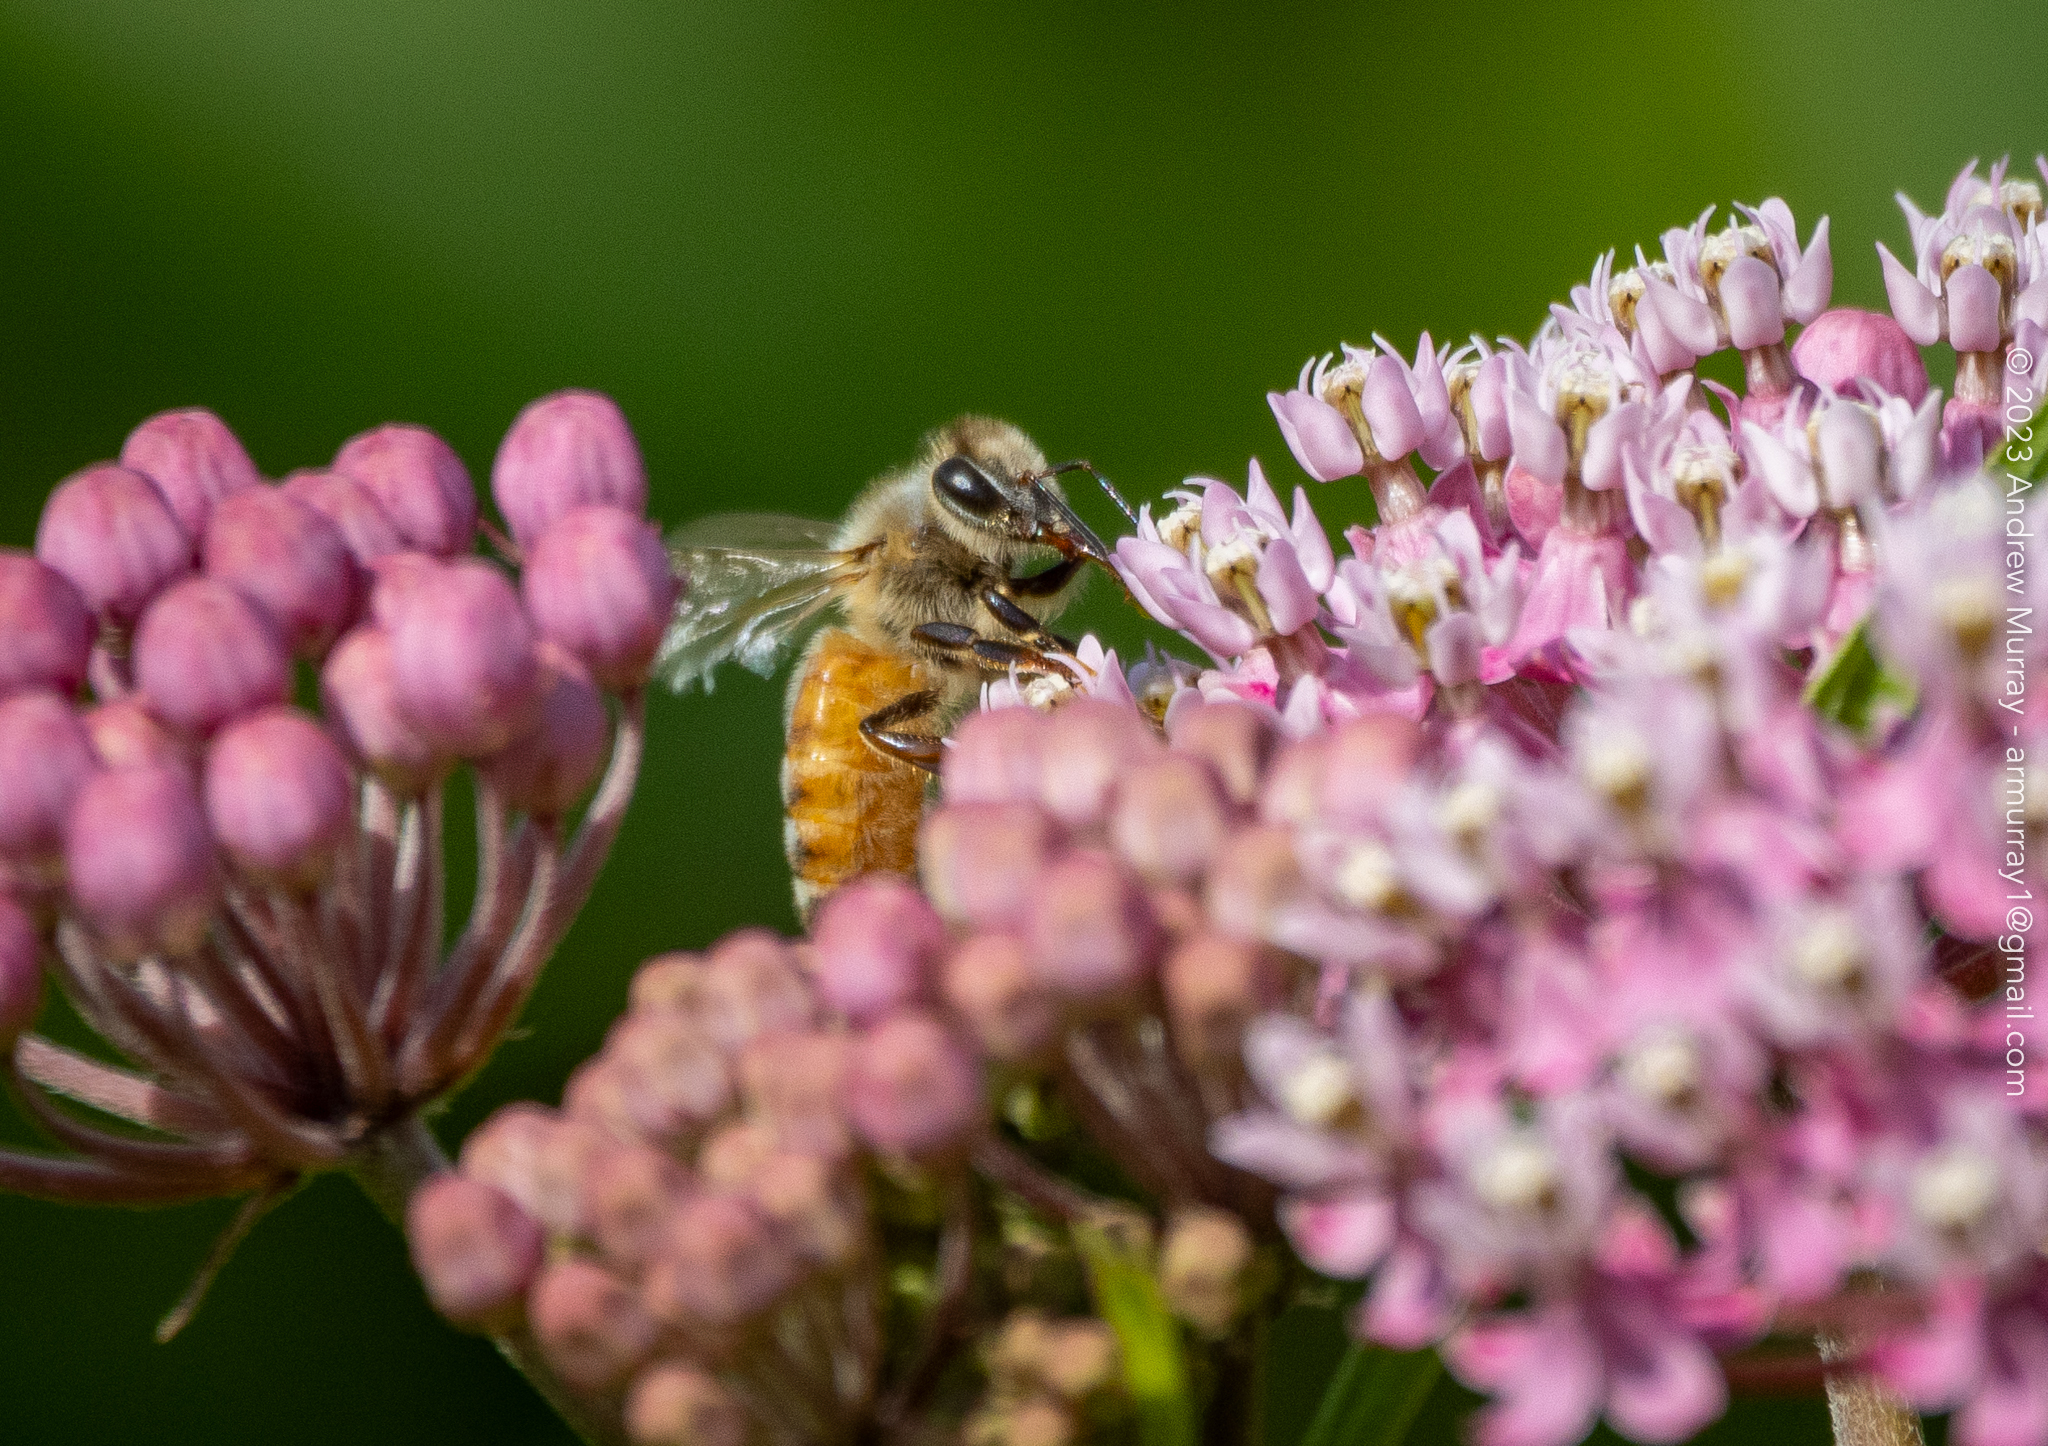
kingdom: Animalia
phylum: Arthropoda
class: Insecta
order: Hymenoptera
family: Apidae
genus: Apis
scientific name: Apis mellifera
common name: Honey bee
